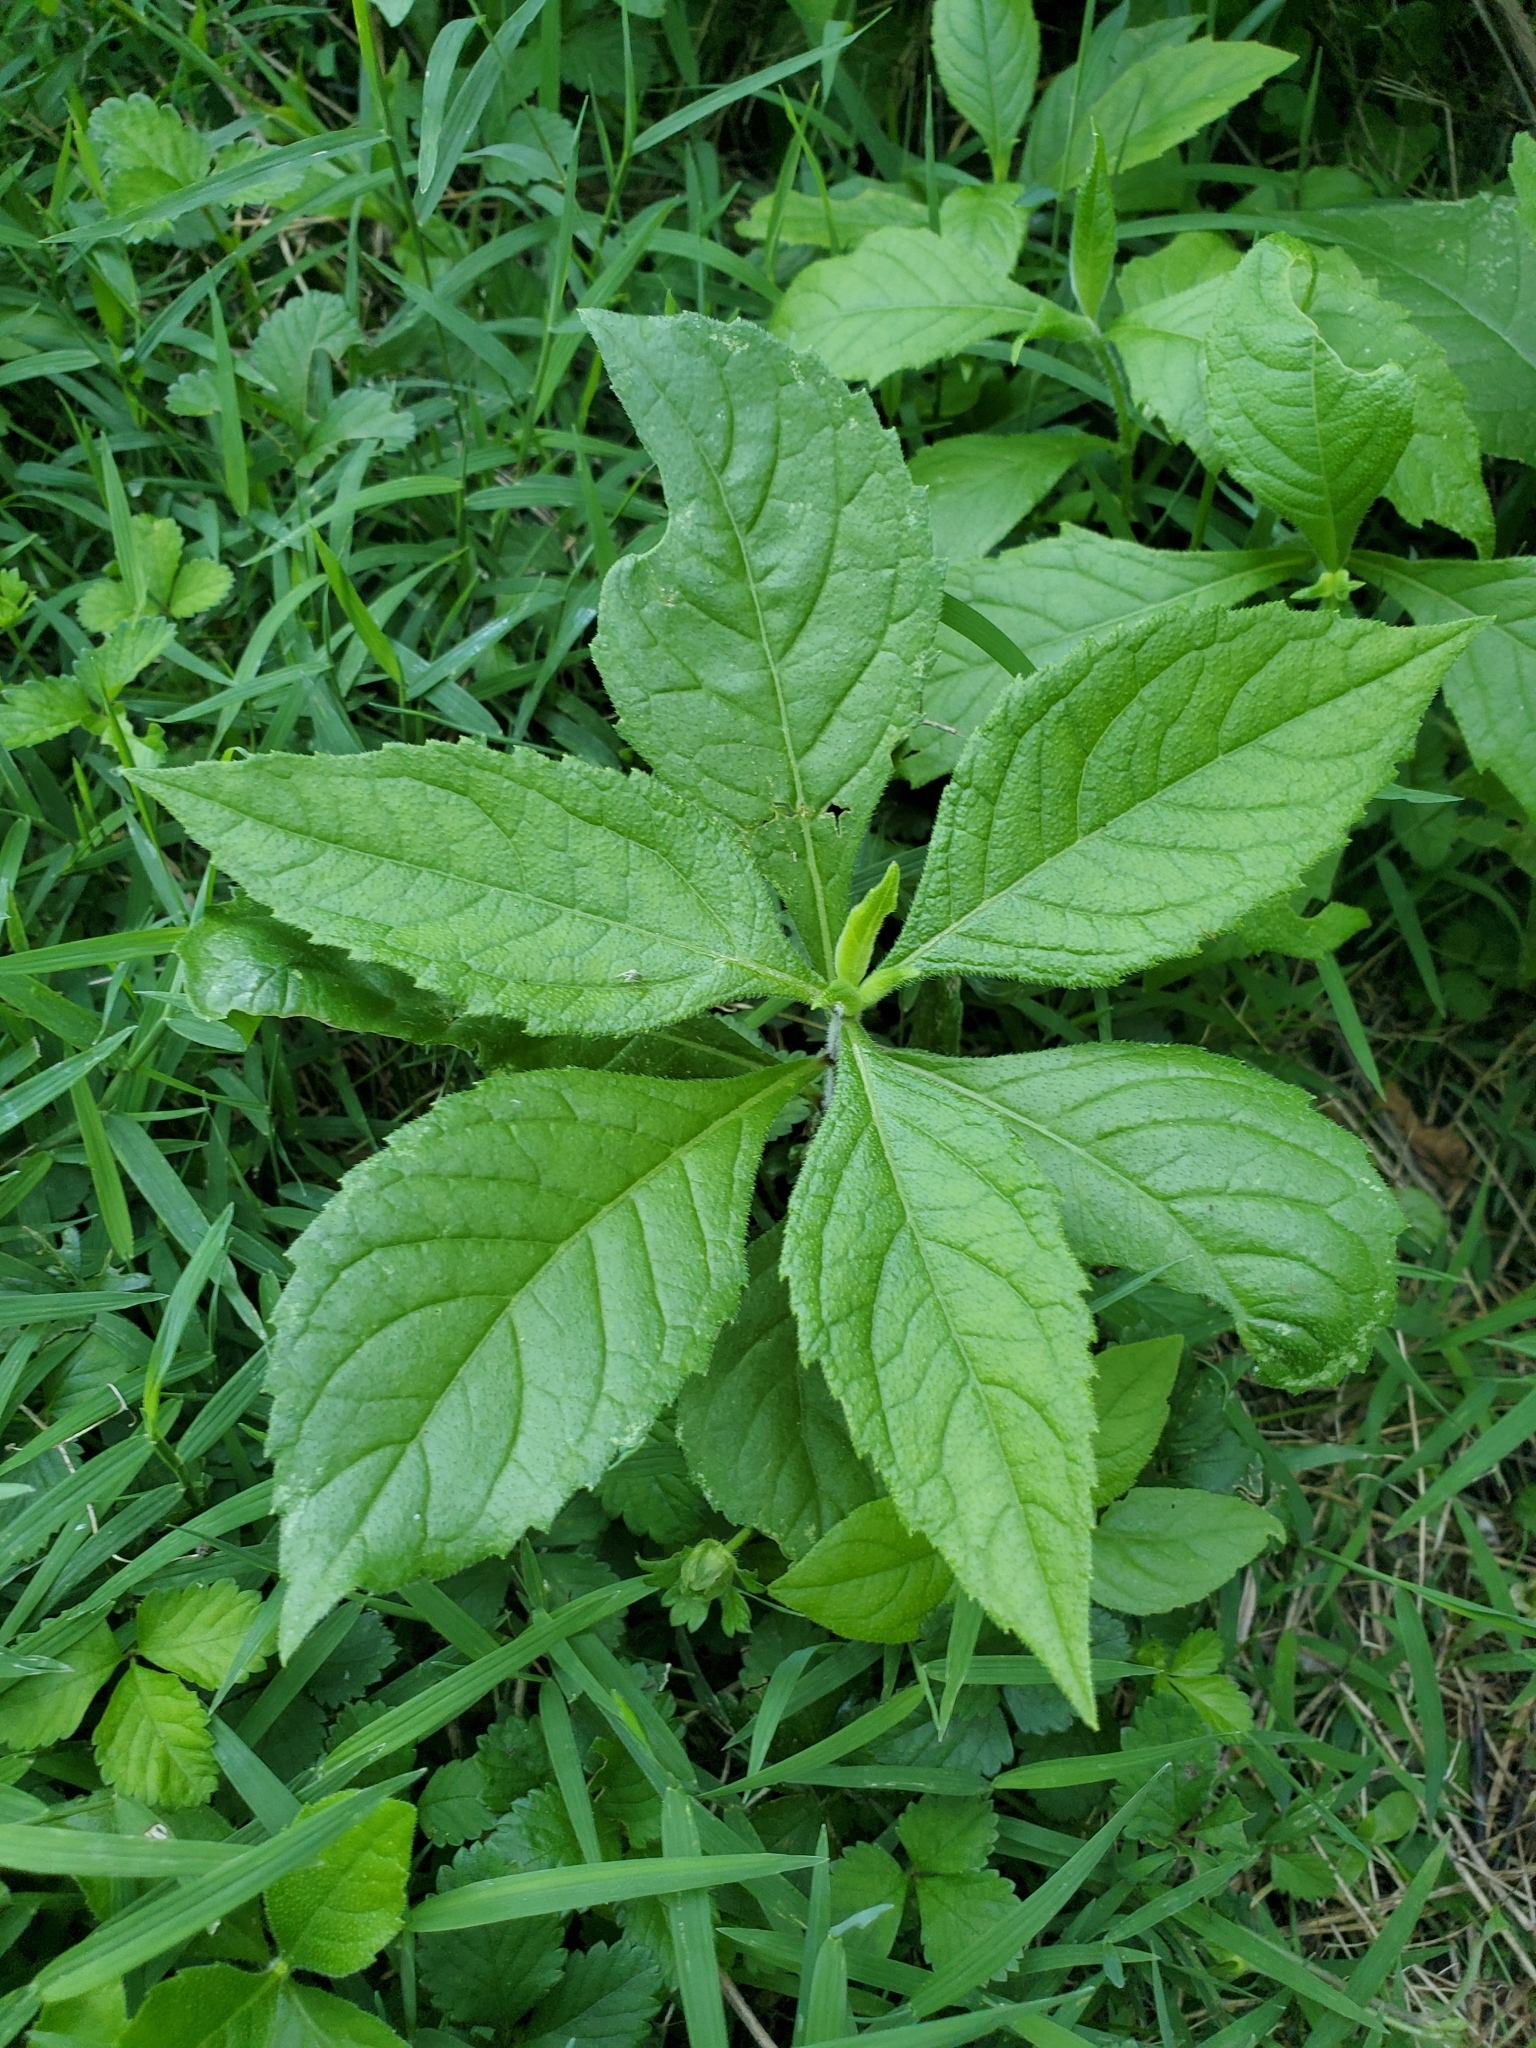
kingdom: Plantae
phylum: Tracheophyta
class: Magnoliopsida
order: Asterales
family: Asteraceae
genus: Verbesina
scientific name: Verbesina alternifolia
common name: Wingstem
